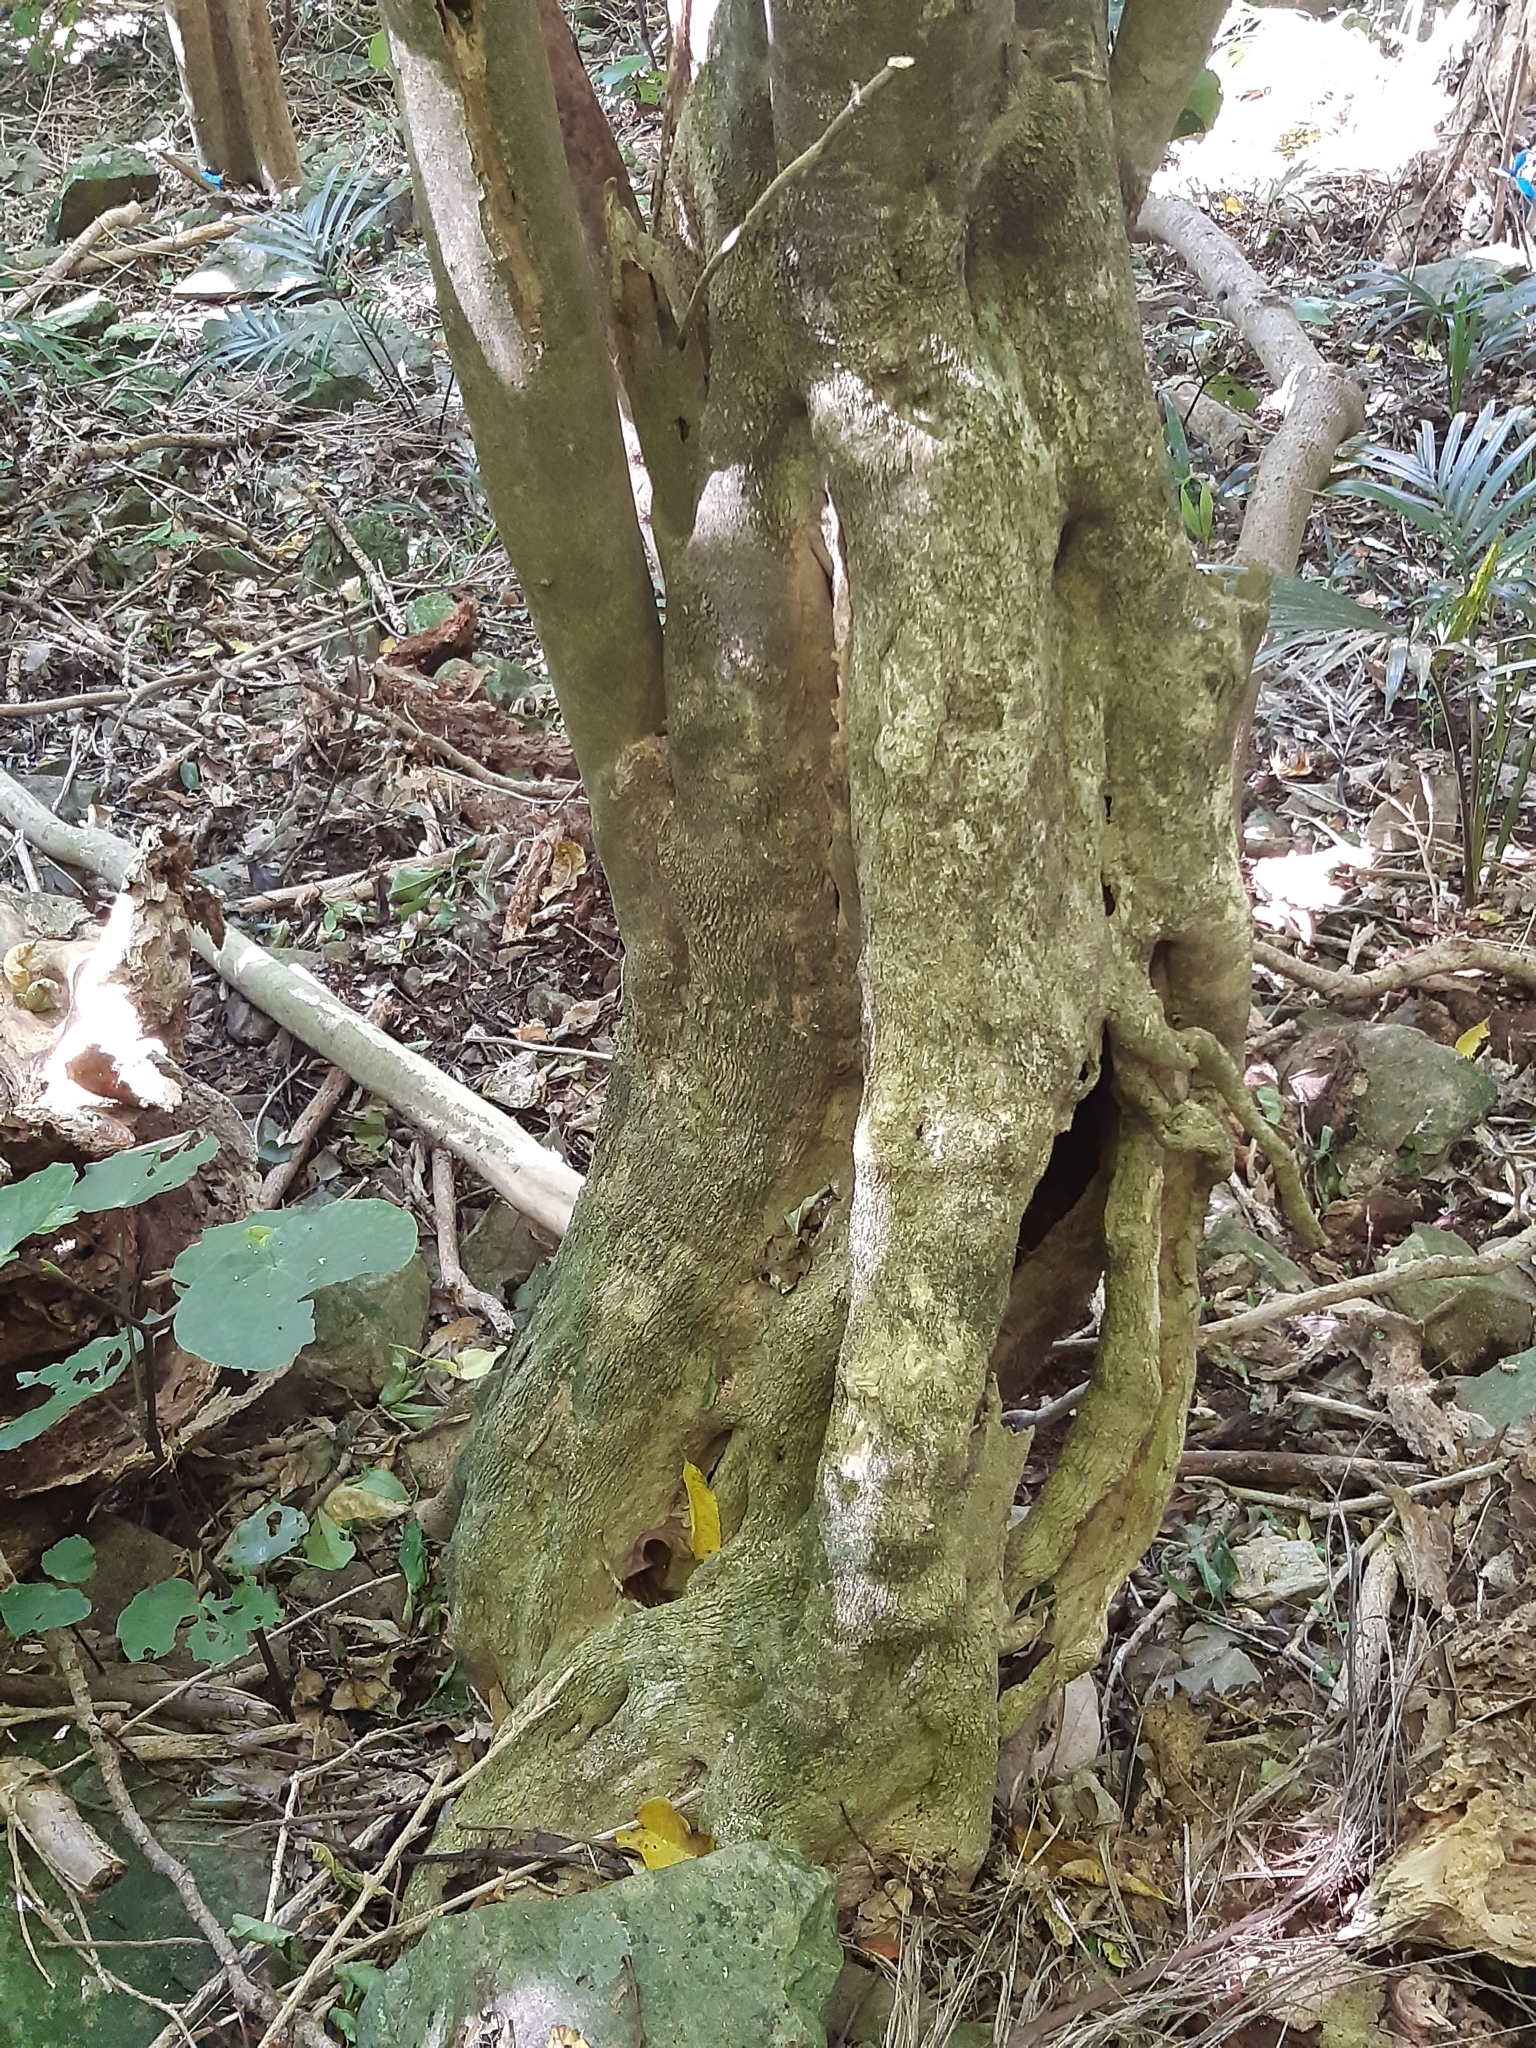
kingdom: Plantae
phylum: Tracheophyta
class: Magnoliopsida
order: Malpighiales
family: Violaceae
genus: Melicytus
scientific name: Melicytus ramiflorus
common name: Mahoe
